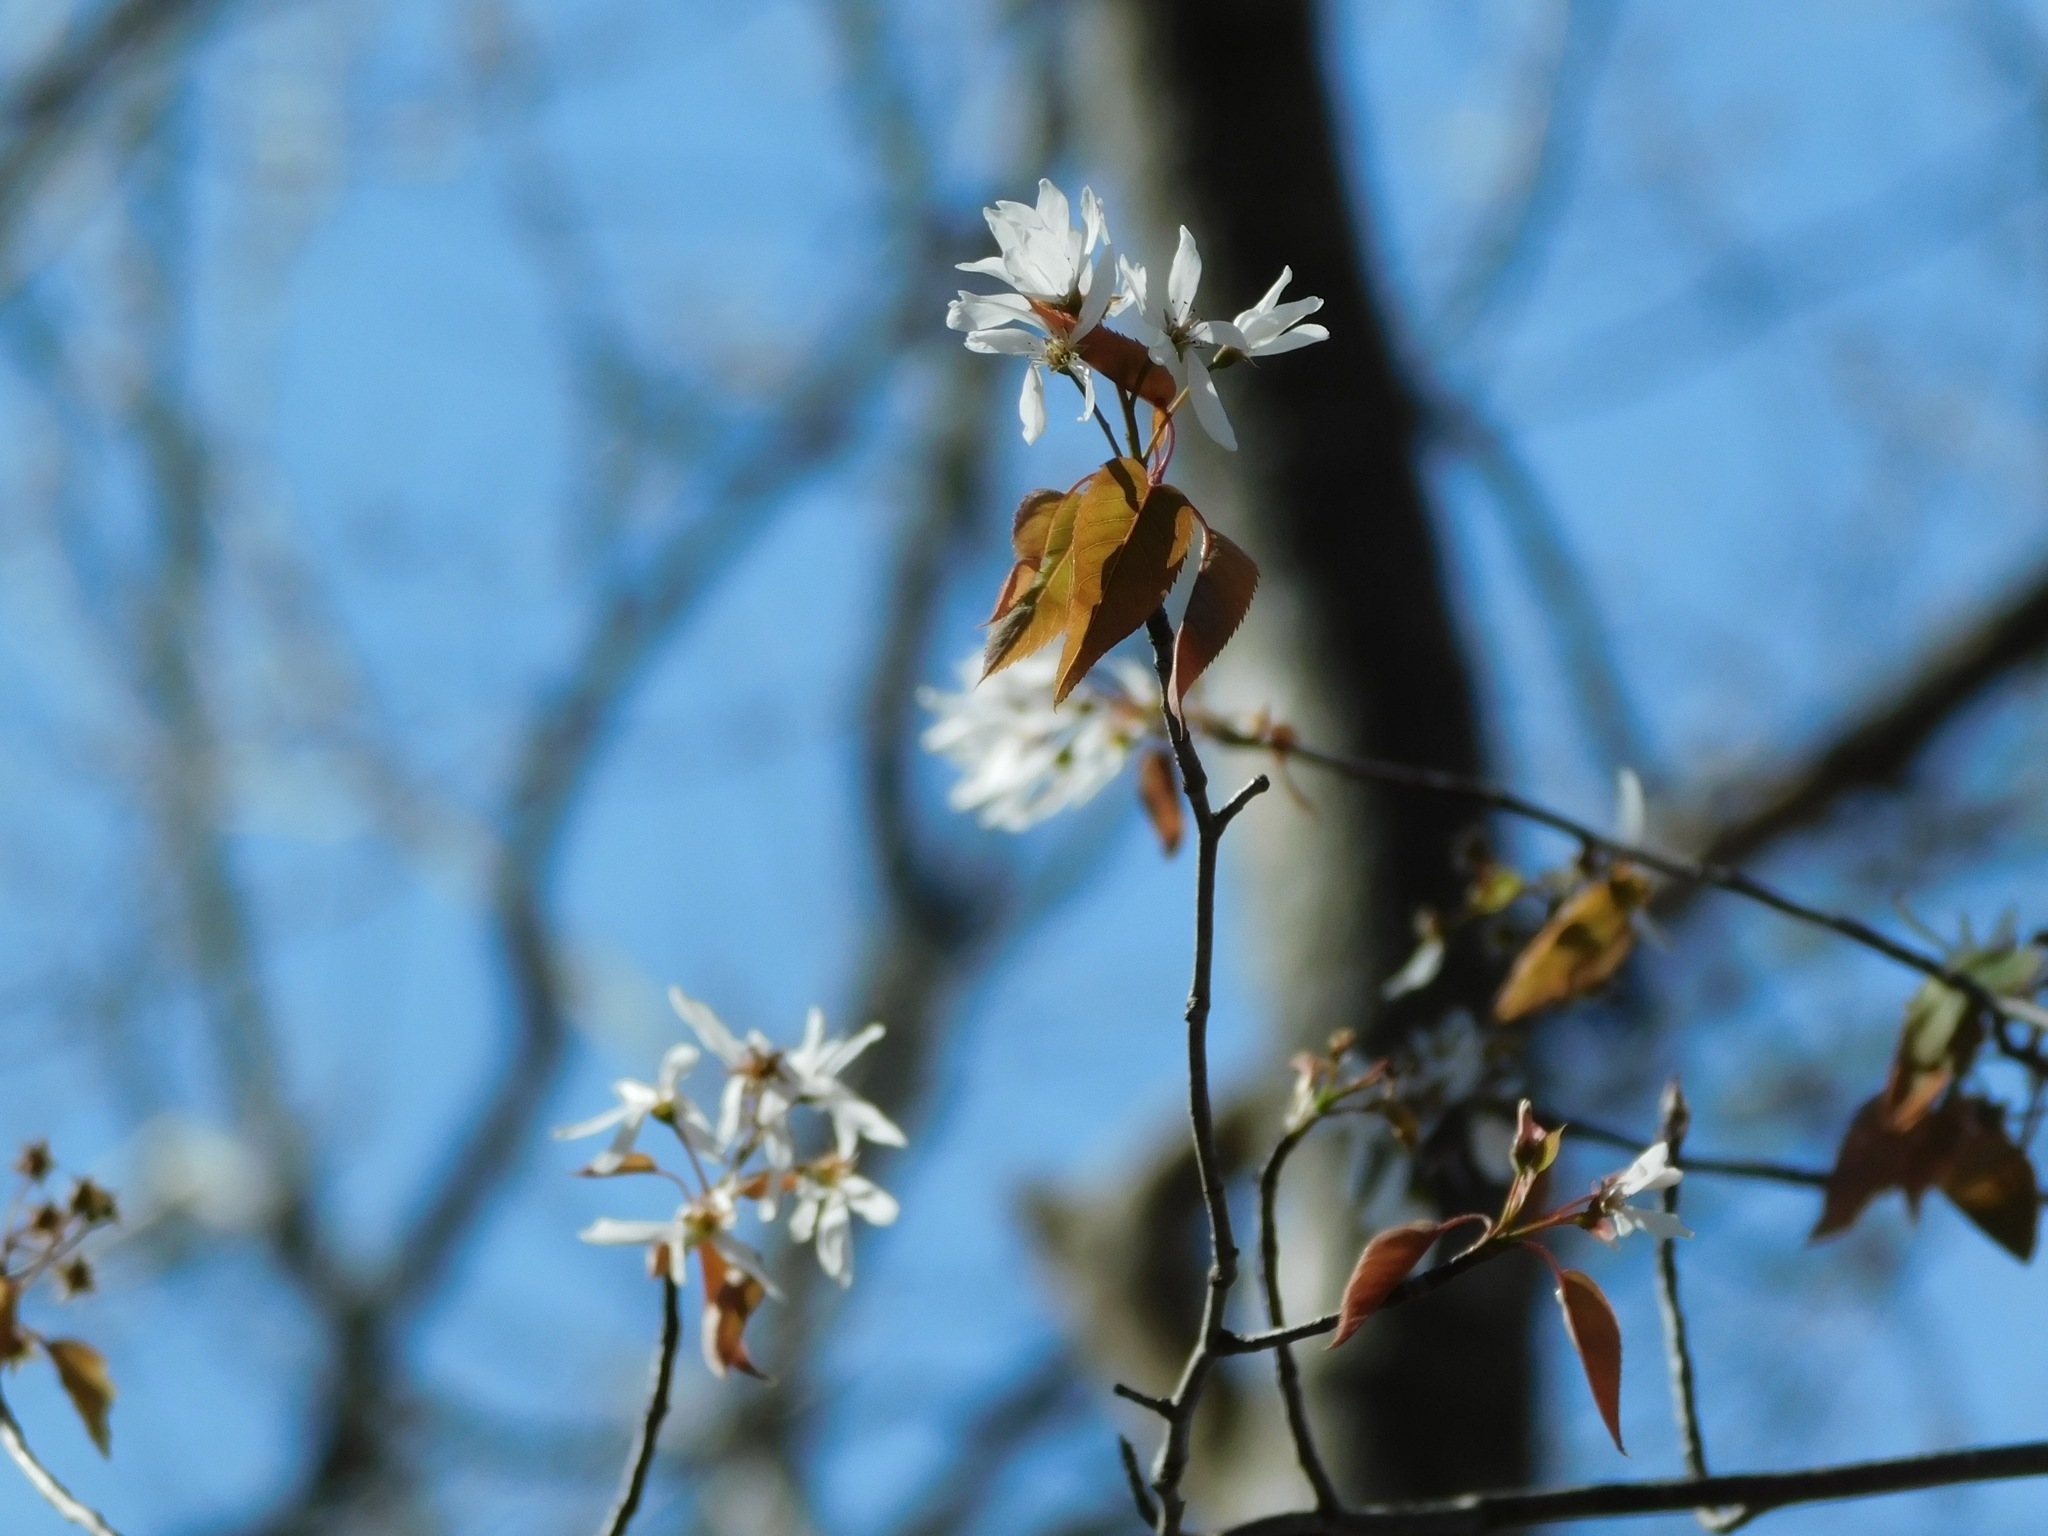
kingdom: Plantae
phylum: Tracheophyta
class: Magnoliopsida
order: Rosales
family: Rosaceae
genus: Amelanchier
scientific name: Amelanchier laevis
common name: Allegheny serviceberry
